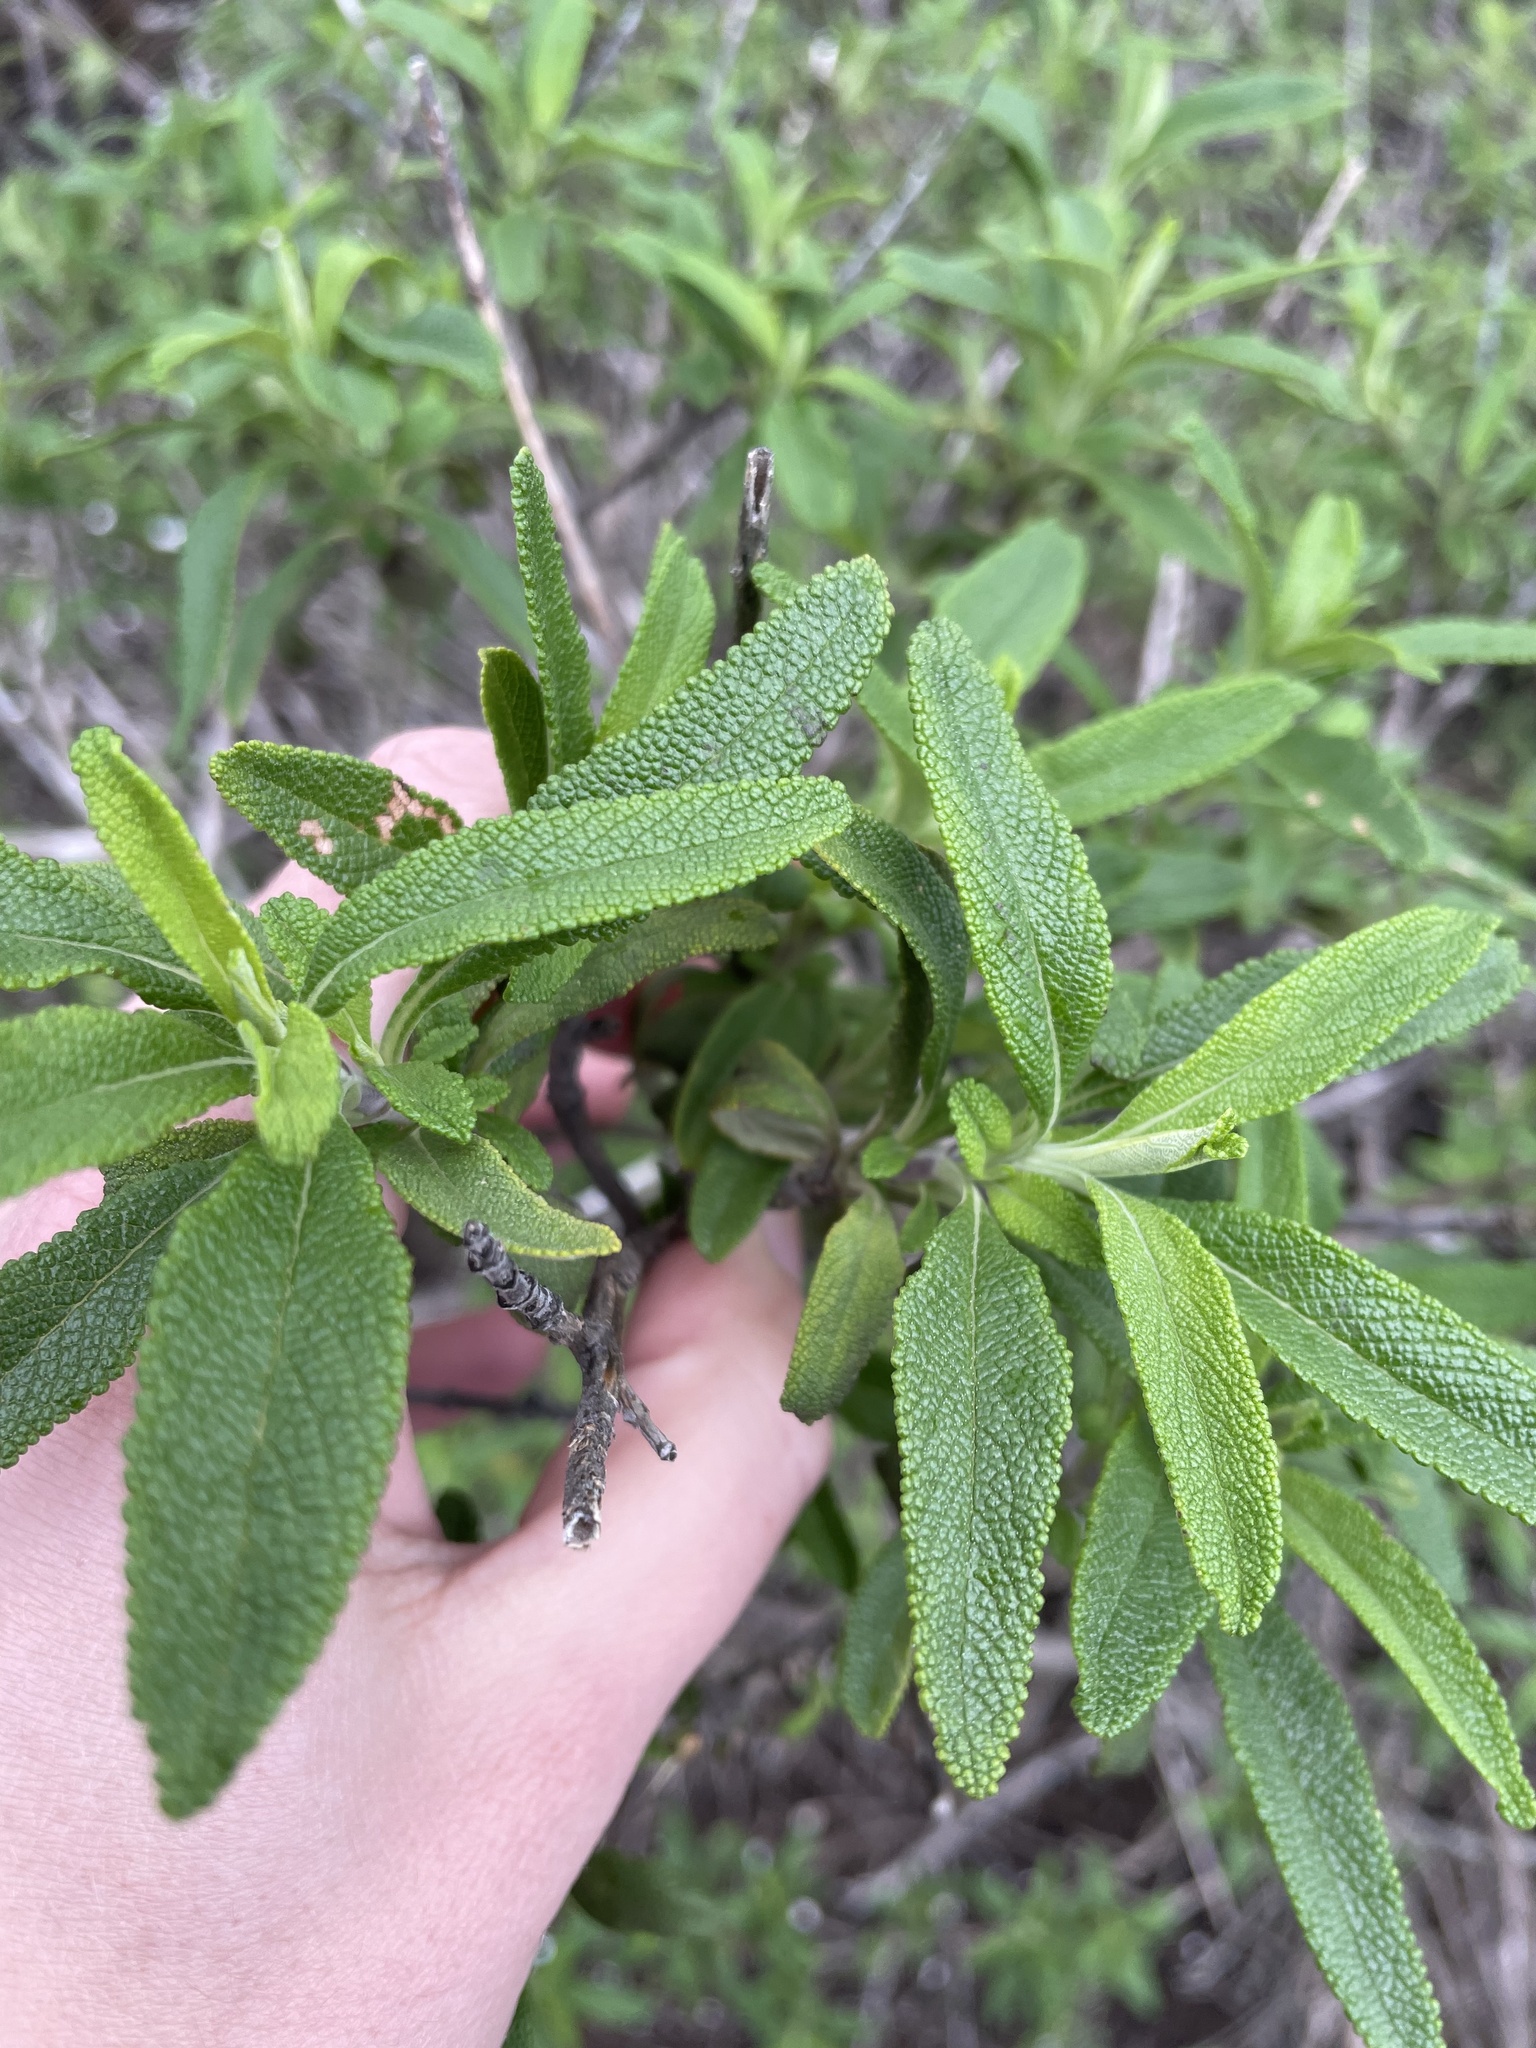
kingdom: Plantae
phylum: Tracheophyta
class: Magnoliopsida
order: Lamiales
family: Lamiaceae
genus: Salvia
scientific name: Salvia mellifera
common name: Black sage
